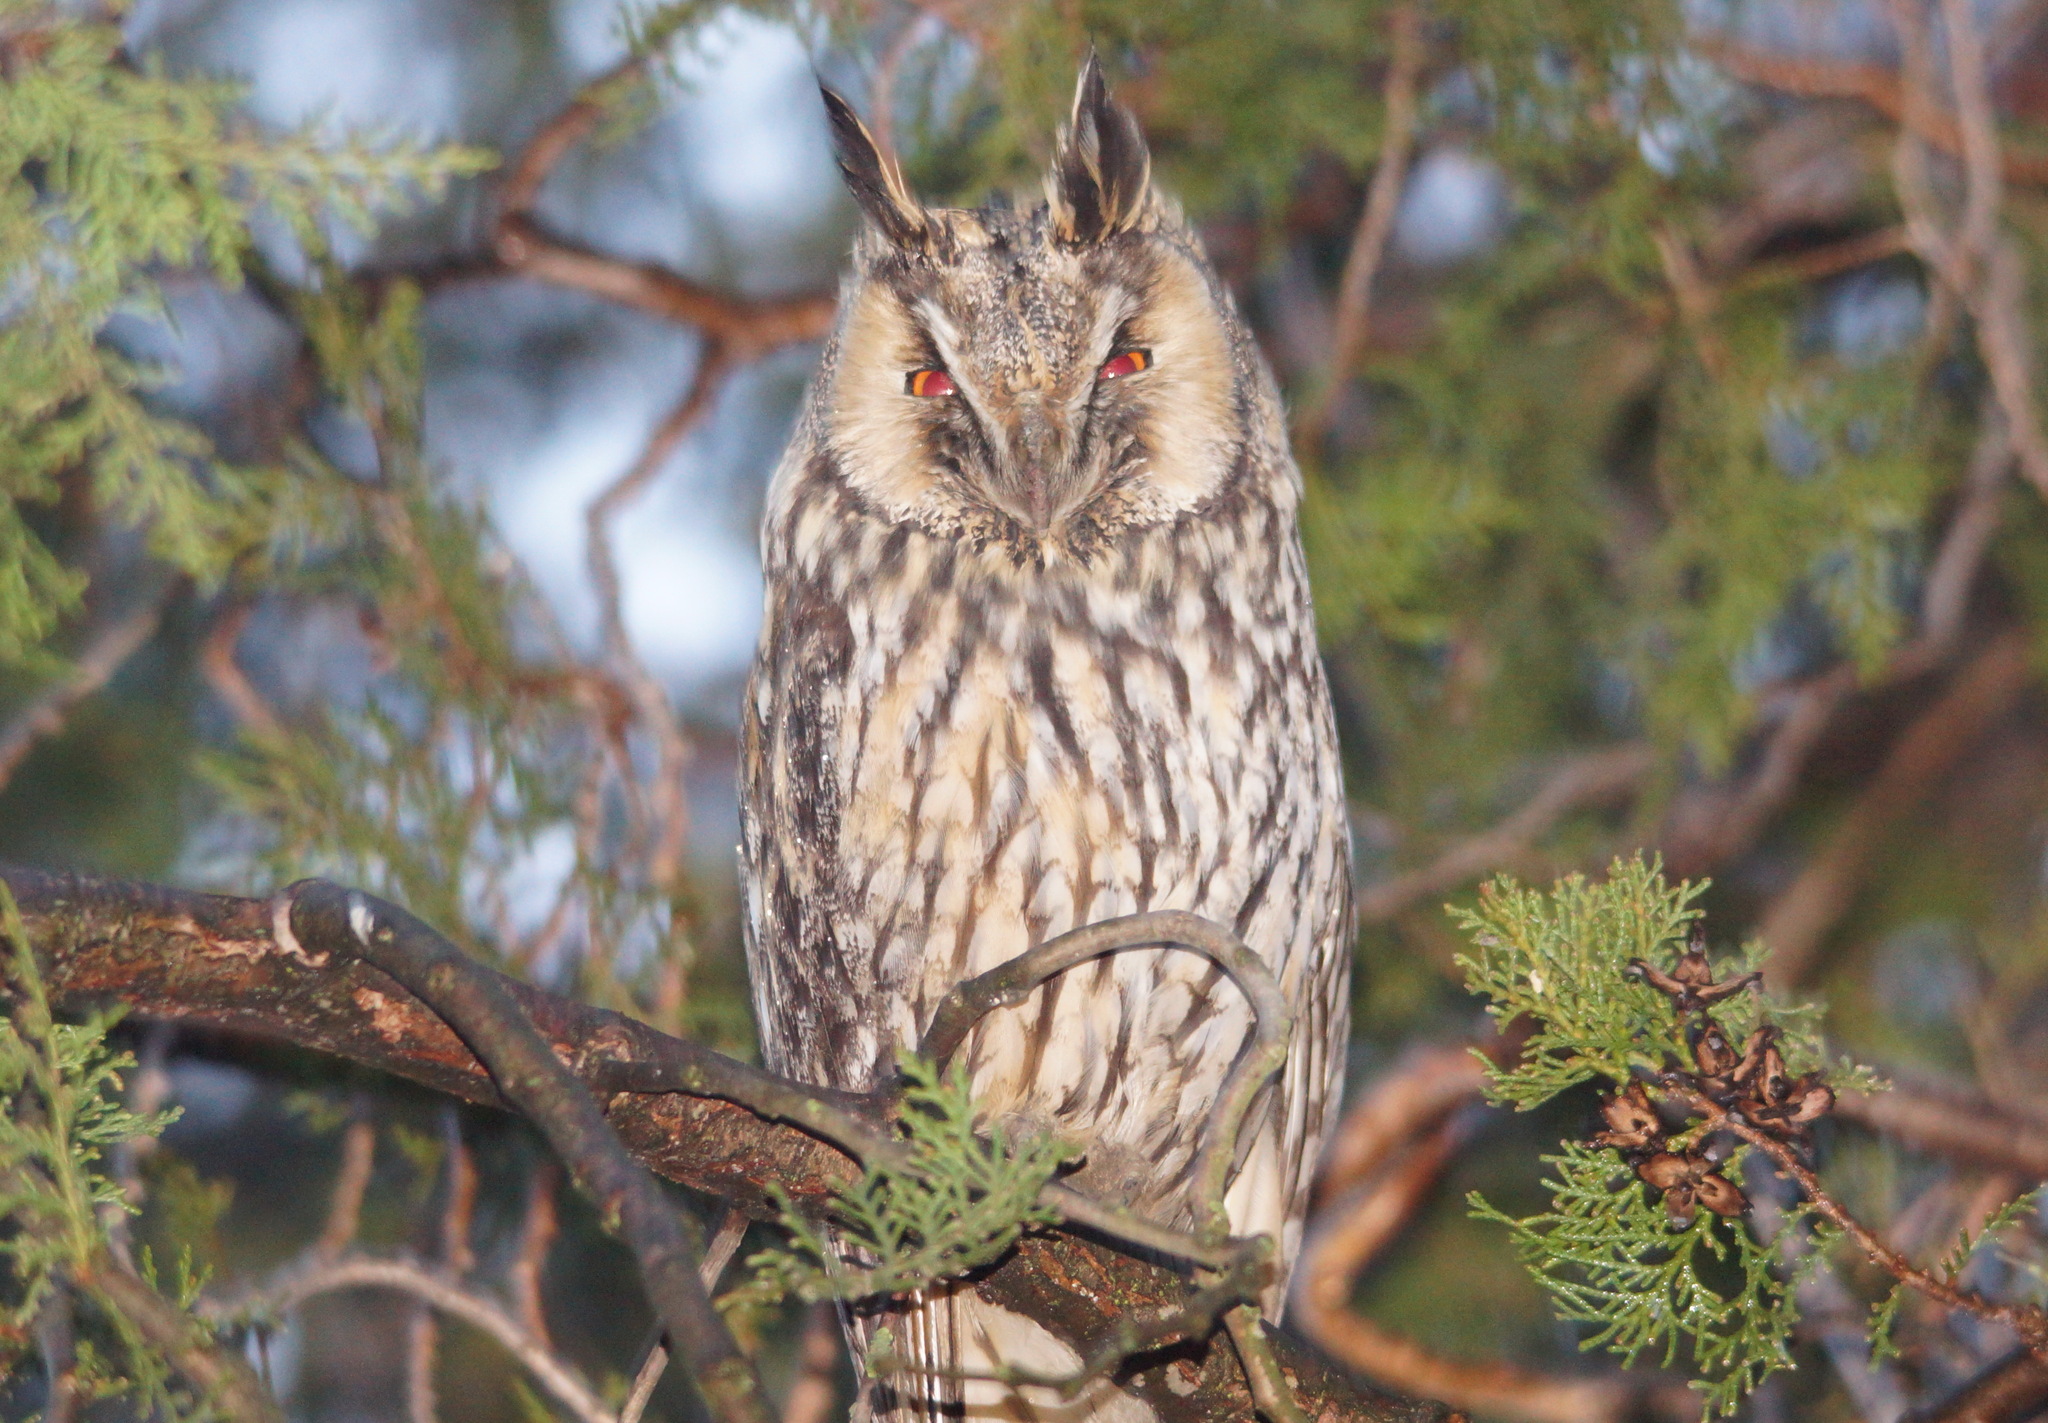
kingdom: Animalia
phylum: Chordata
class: Aves
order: Strigiformes
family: Strigidae
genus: Asio
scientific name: Asio otus
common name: Long-eared owl
